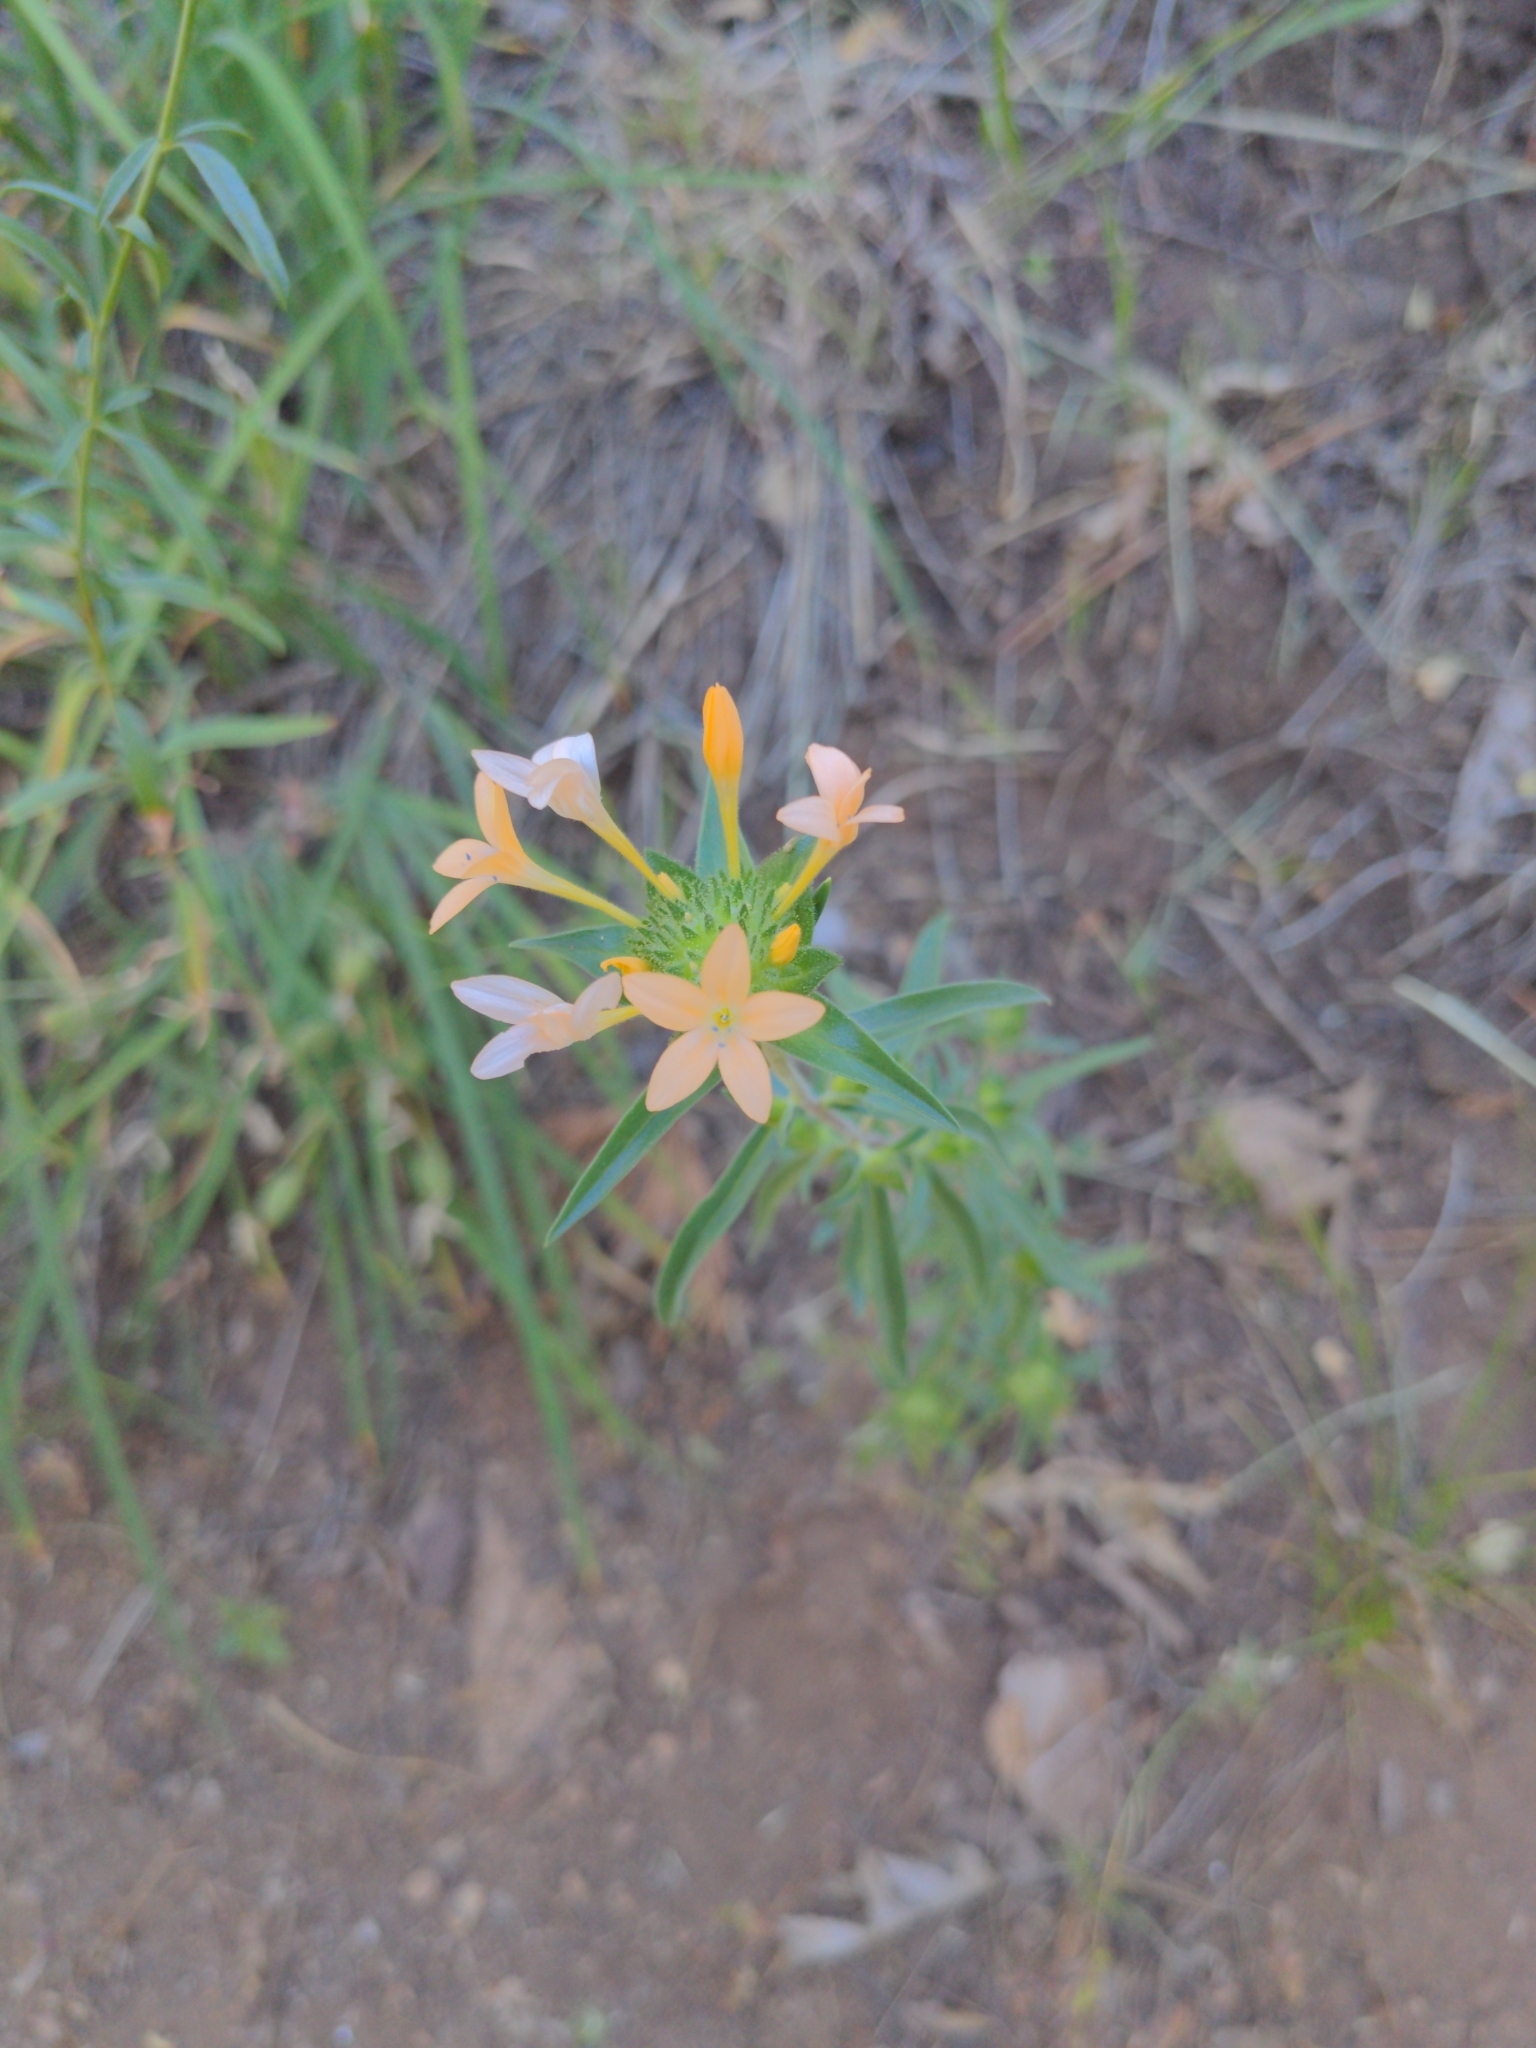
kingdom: Plantae
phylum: Tracheophyta
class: Magnoliopsida
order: Ericales
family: Polemoniaceae
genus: Collomia
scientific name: Collomia grandiflora
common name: California strawflower
